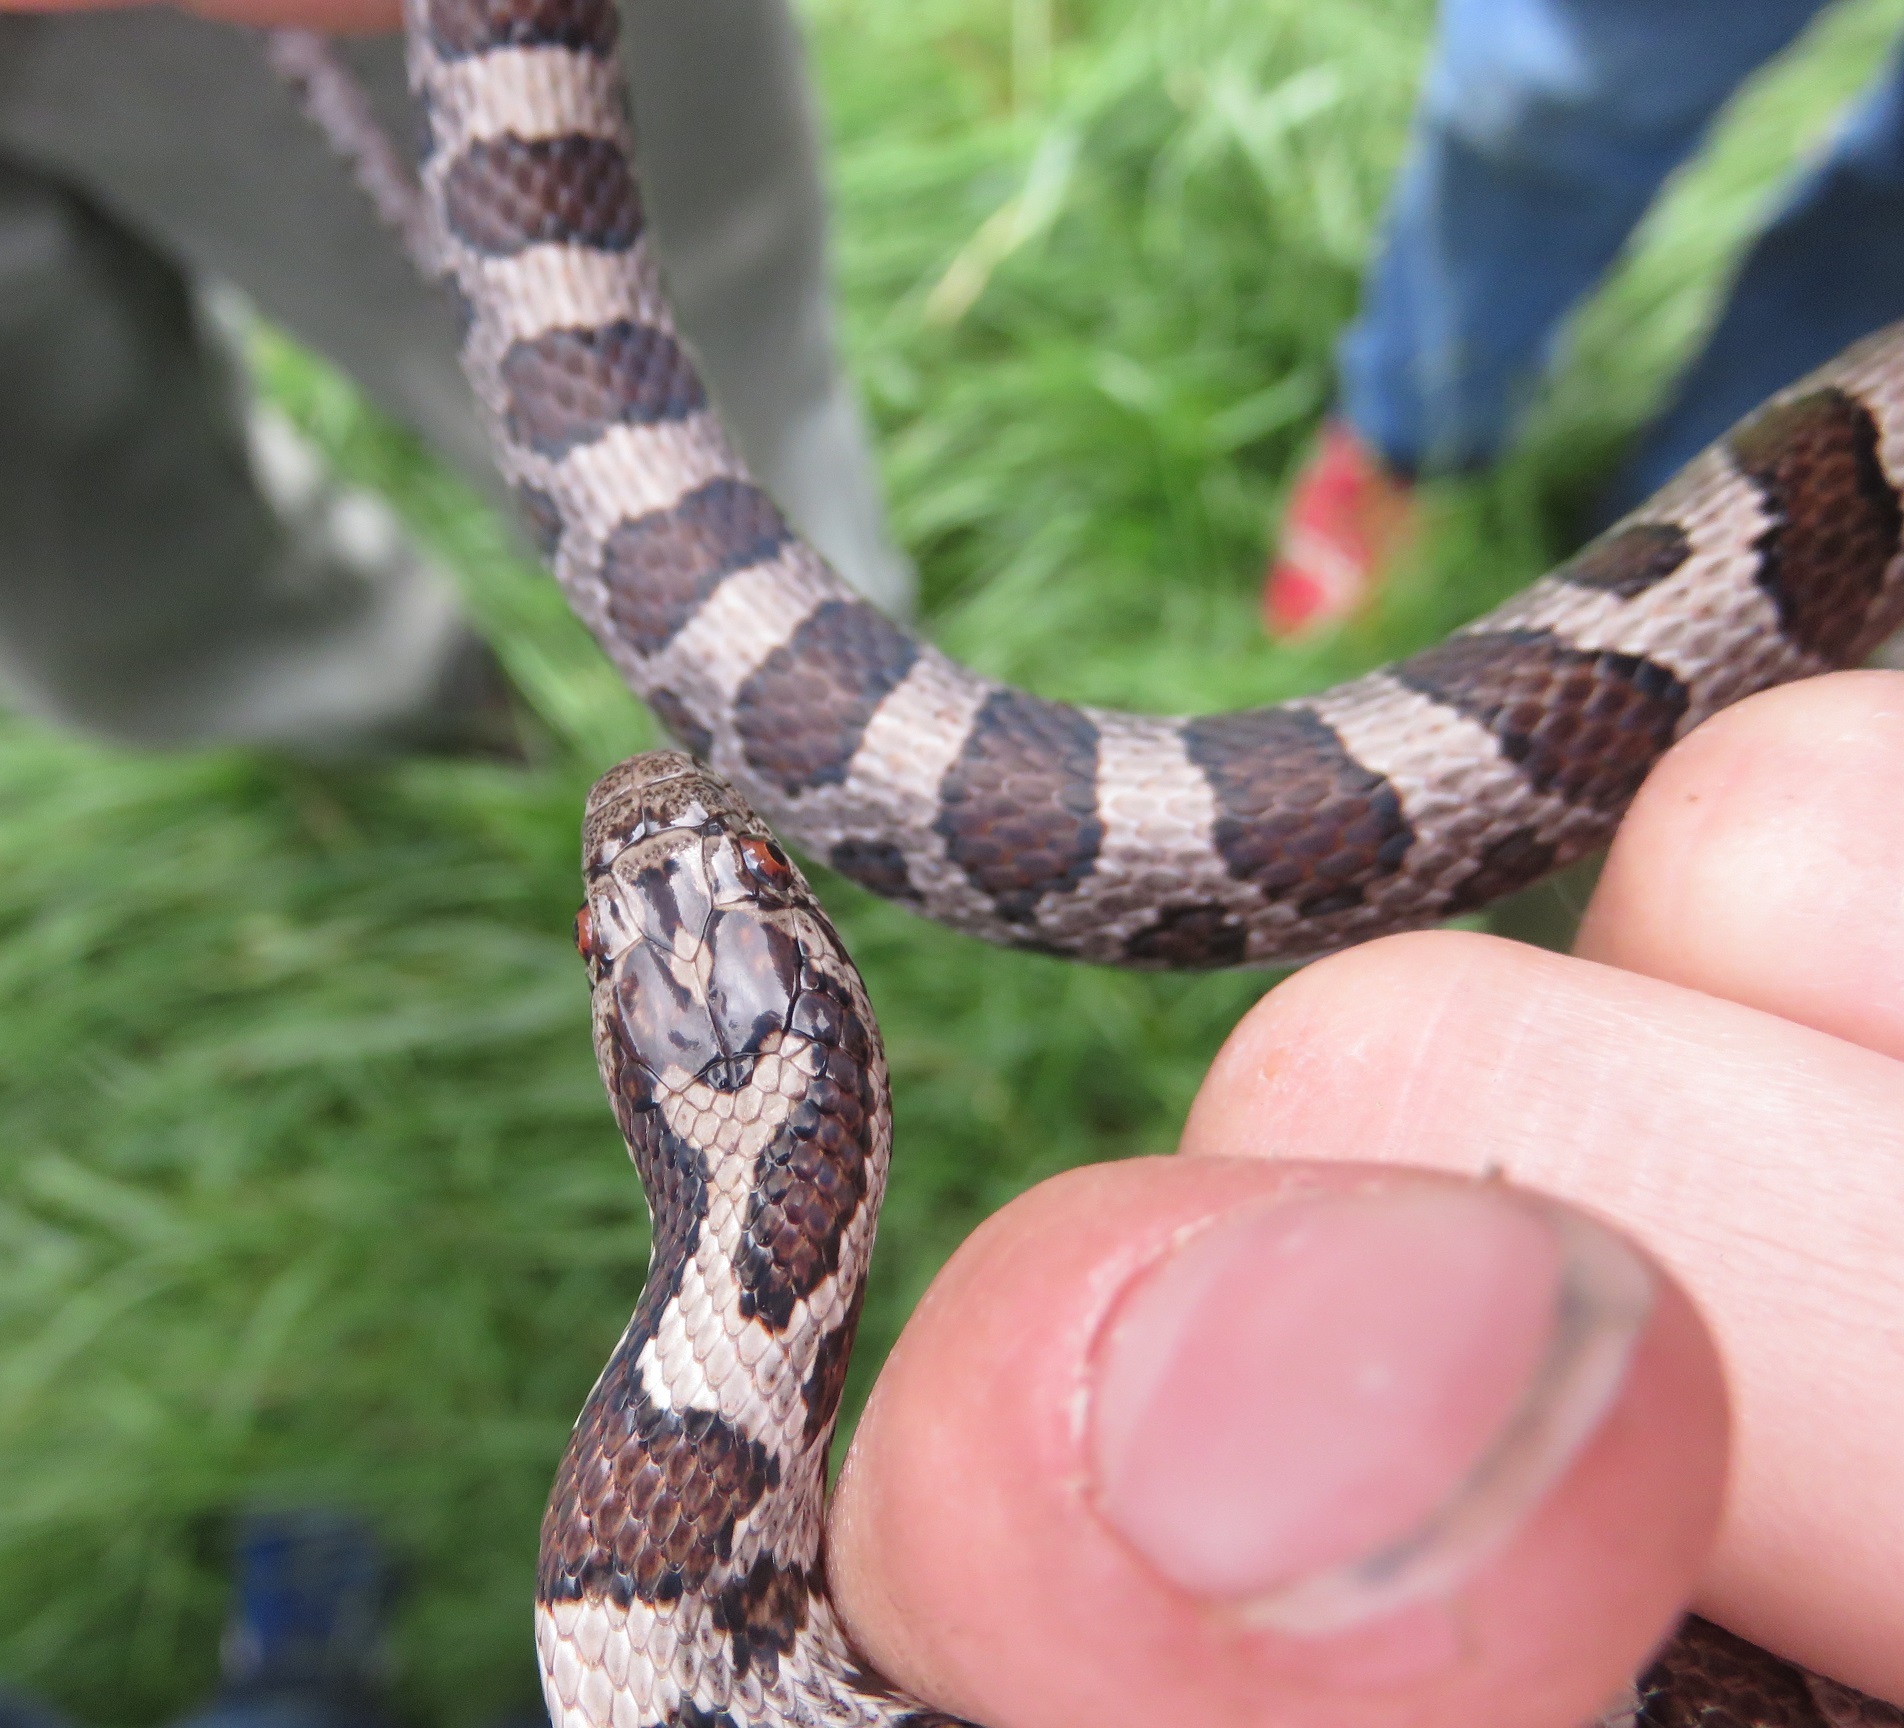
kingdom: Animalia
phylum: Chordata
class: Squamata
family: Colubridae
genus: Lampropeltis
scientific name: Lampropeltis triangulum
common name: Eastern milksnake
